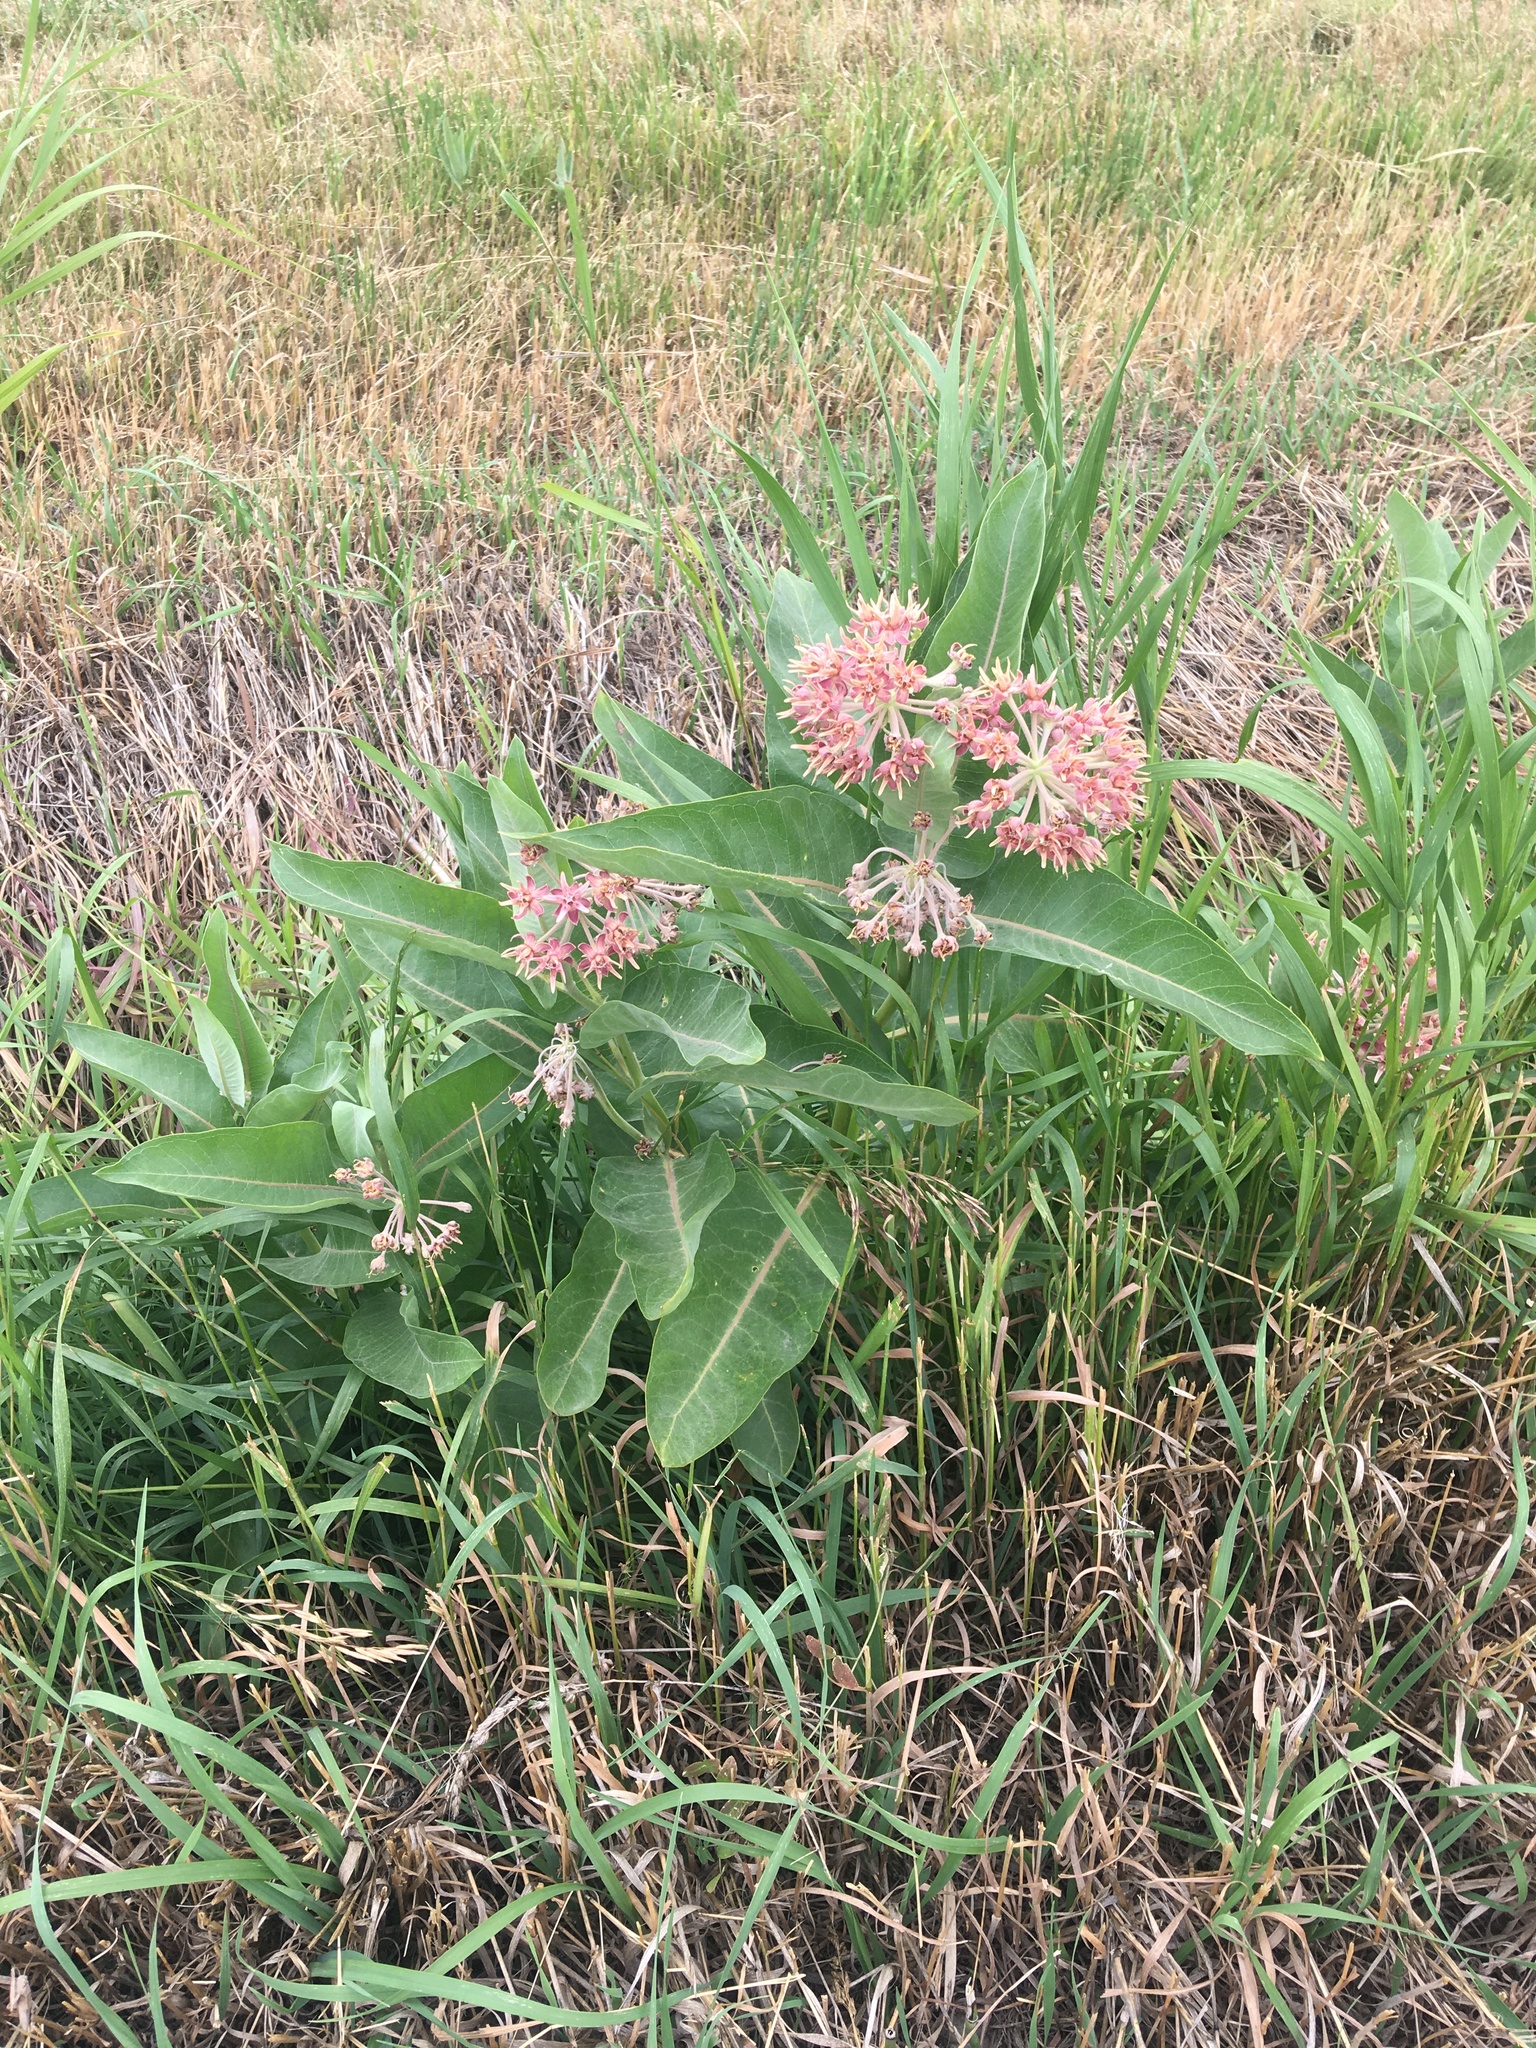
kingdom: Plantae
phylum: Tracheophyta
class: Magnoliopsida
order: Gentianales
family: Apocynaceae
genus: Asclepias
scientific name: Asclepias speciosa
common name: Showy milkweed
